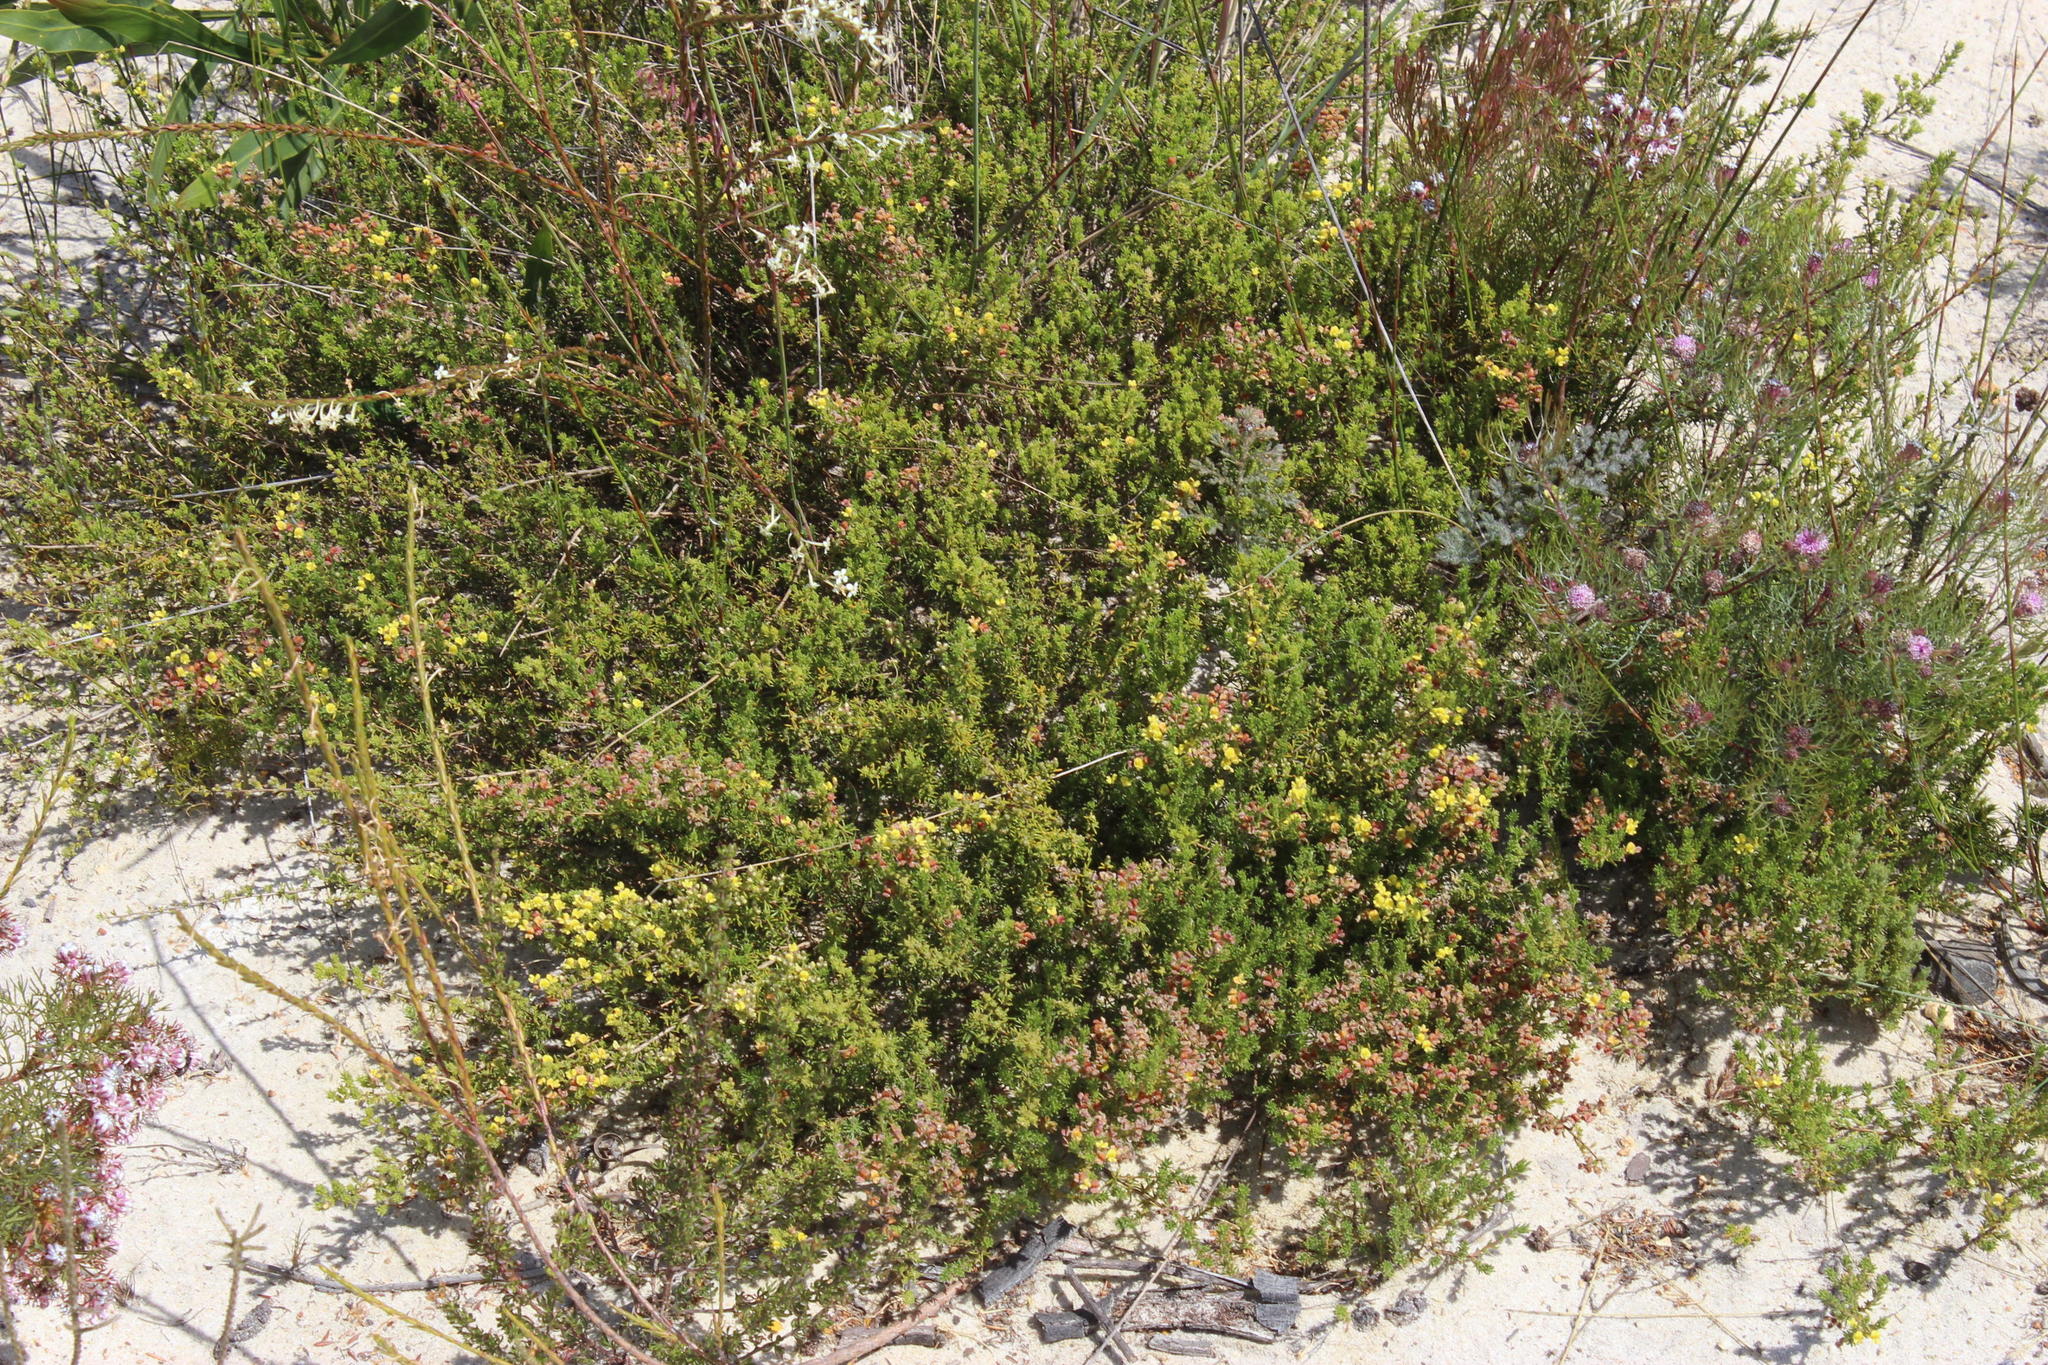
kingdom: Plantae
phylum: Tracheophyta
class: Magnoliopsida
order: Fabales
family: Fabaceae
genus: Aspalathus
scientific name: Aspalathus albens
